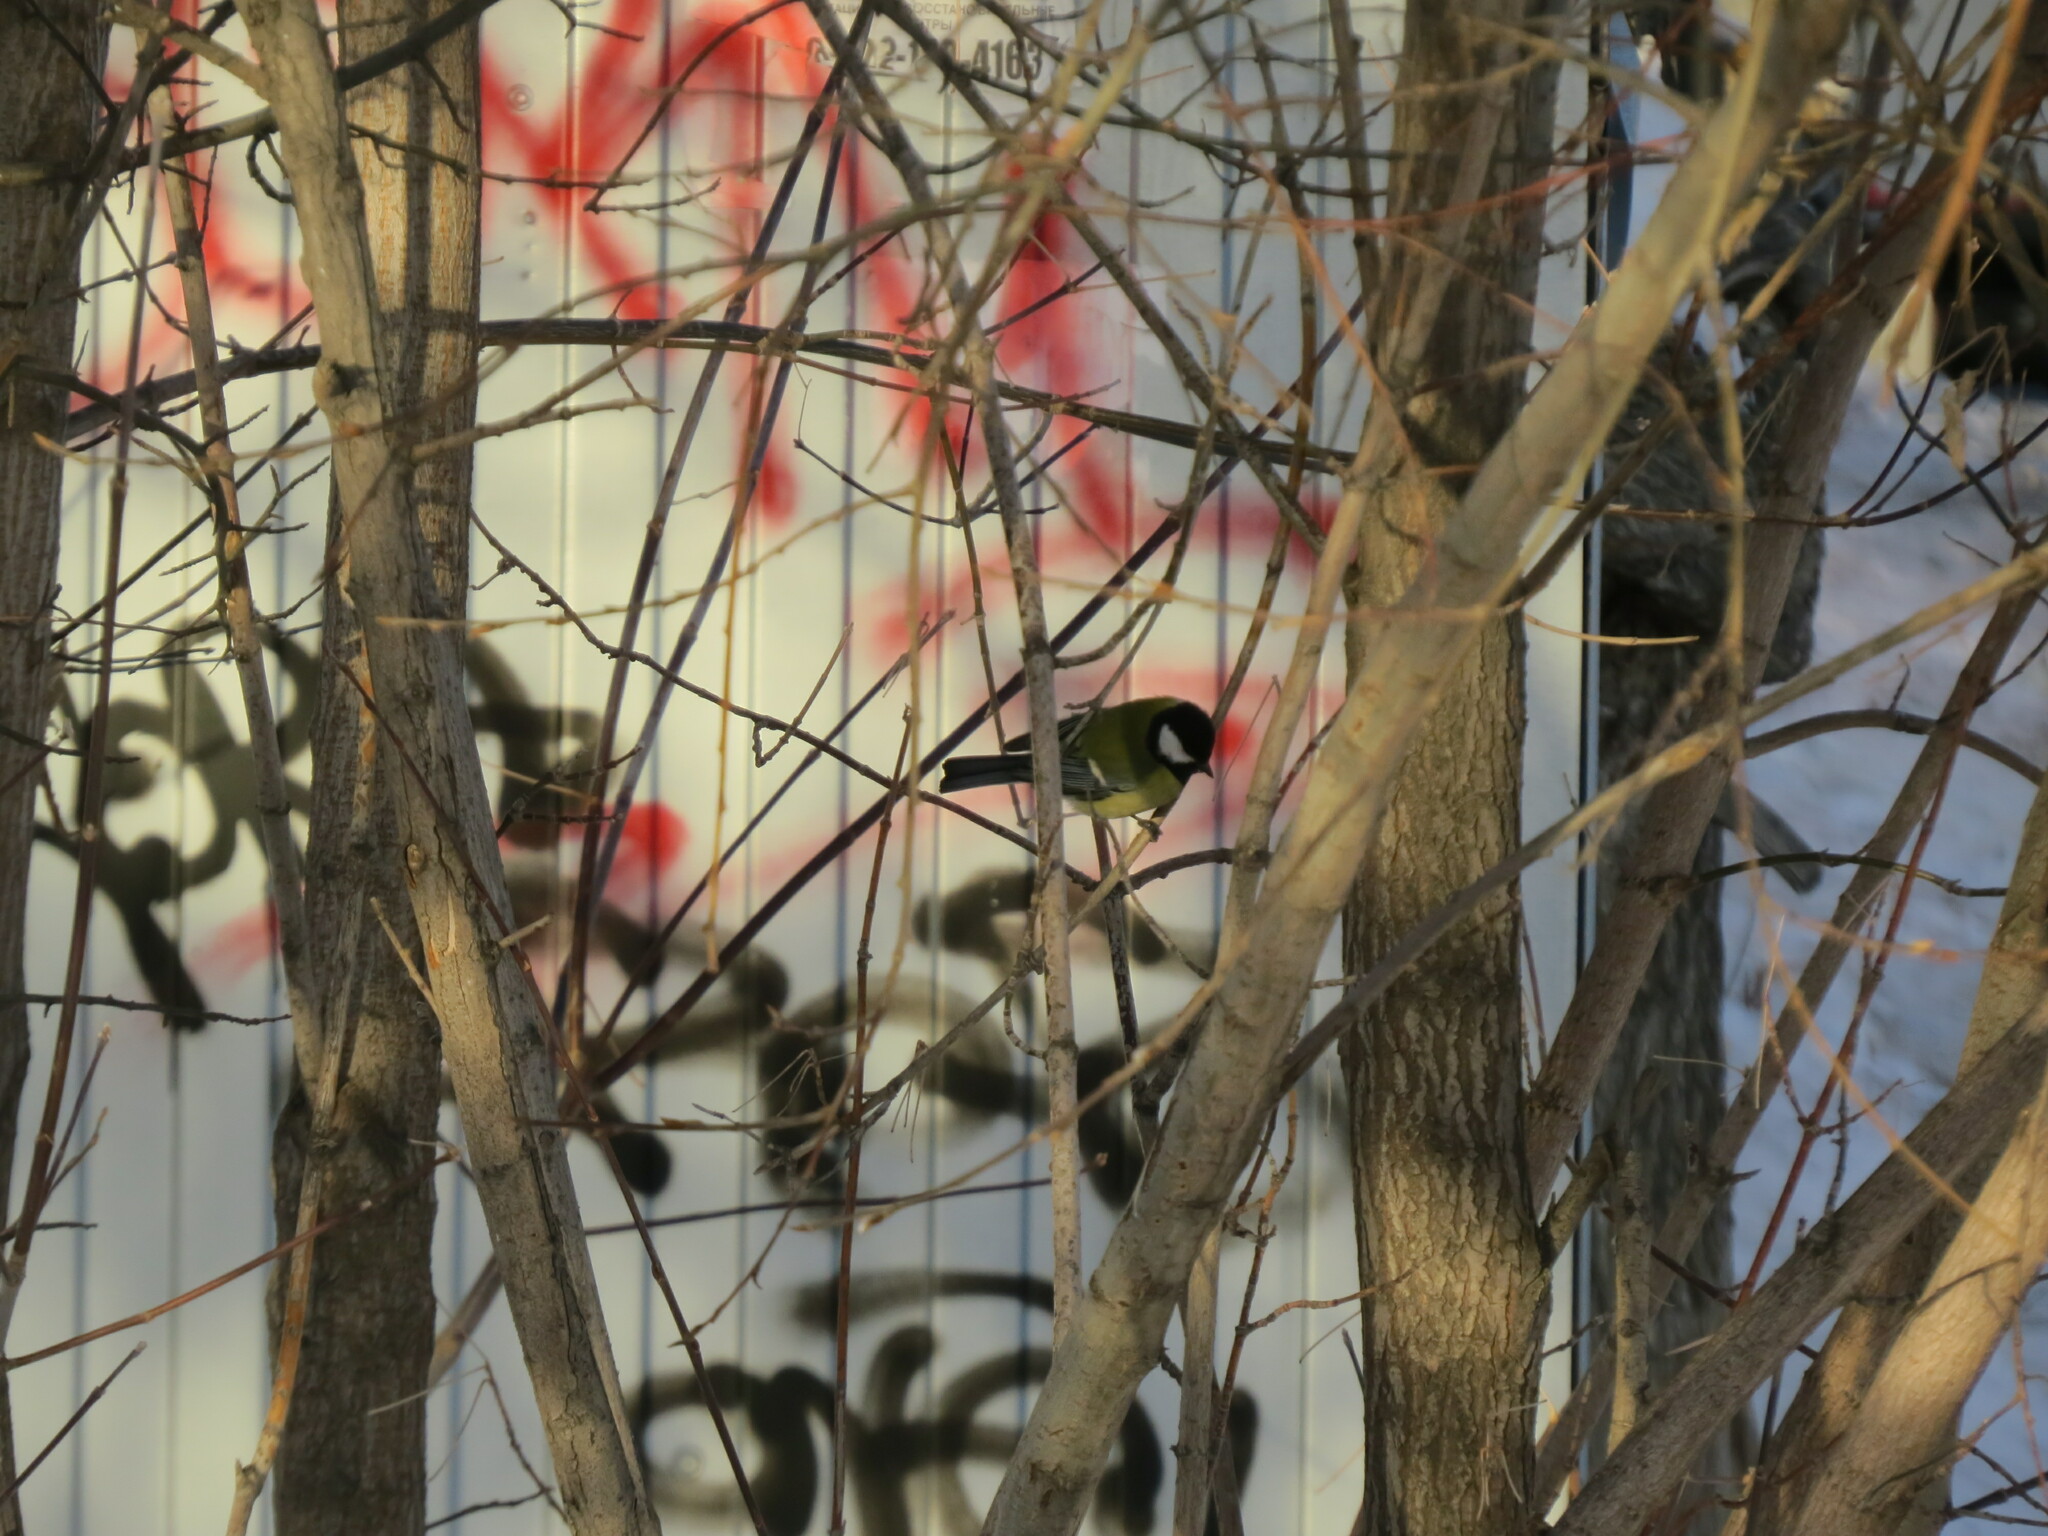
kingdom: Animalia
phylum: Chordata
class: Aves
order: Passeriformes
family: Paridae
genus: Parus
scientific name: Parus major
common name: Great tit
